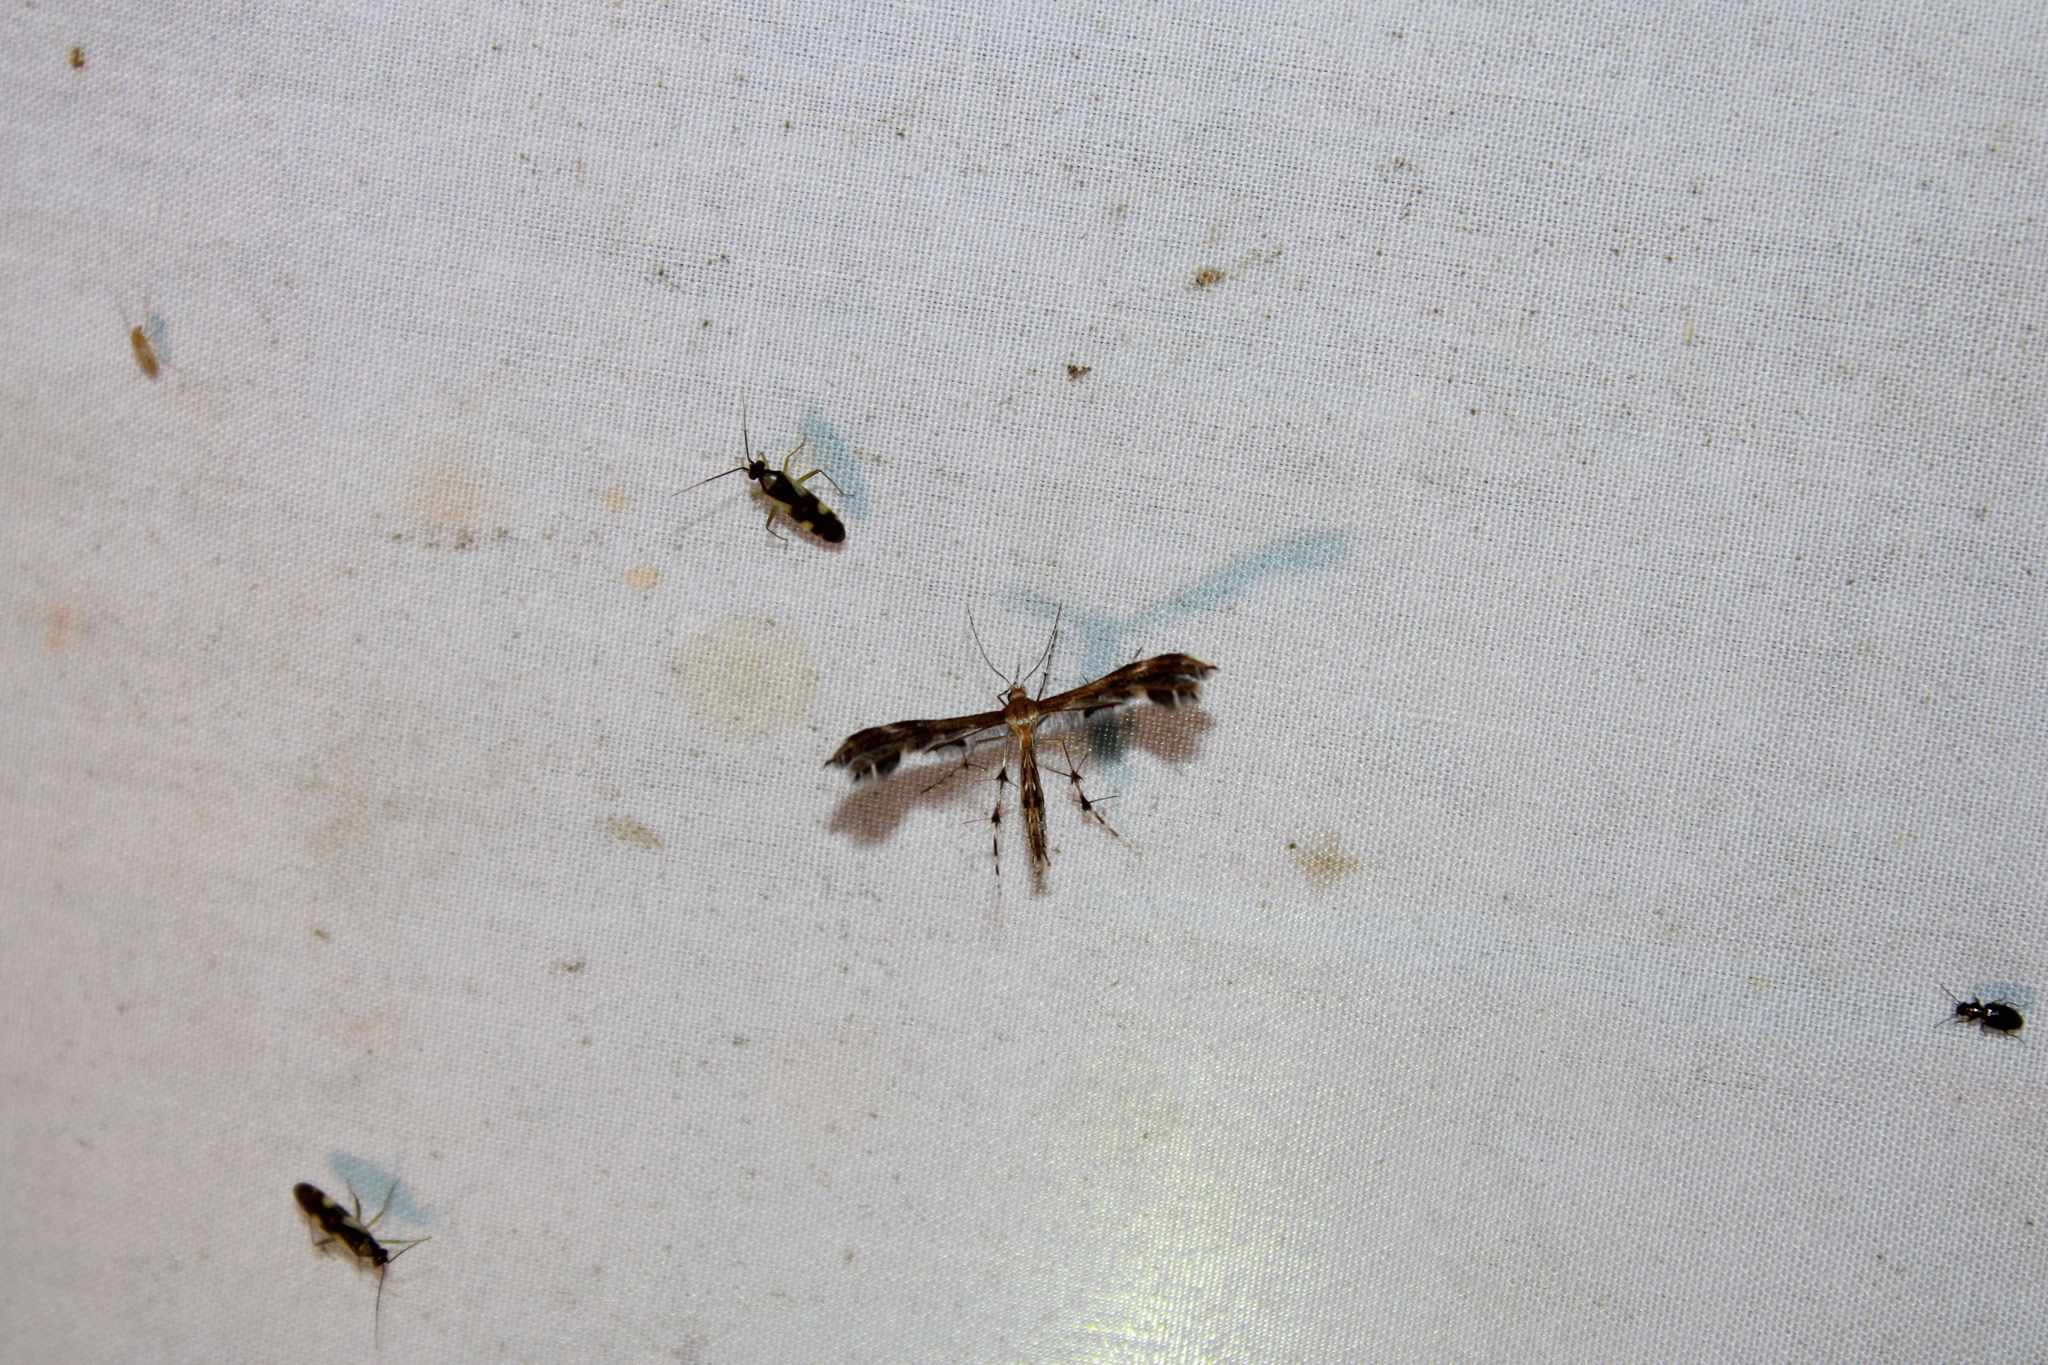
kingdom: Animalia
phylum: Arthropoda
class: Insecta
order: Lepidoptera
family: Pterophoridae
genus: Dejongia
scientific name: Dejongia lobidactylus
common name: Lobed plume moth
